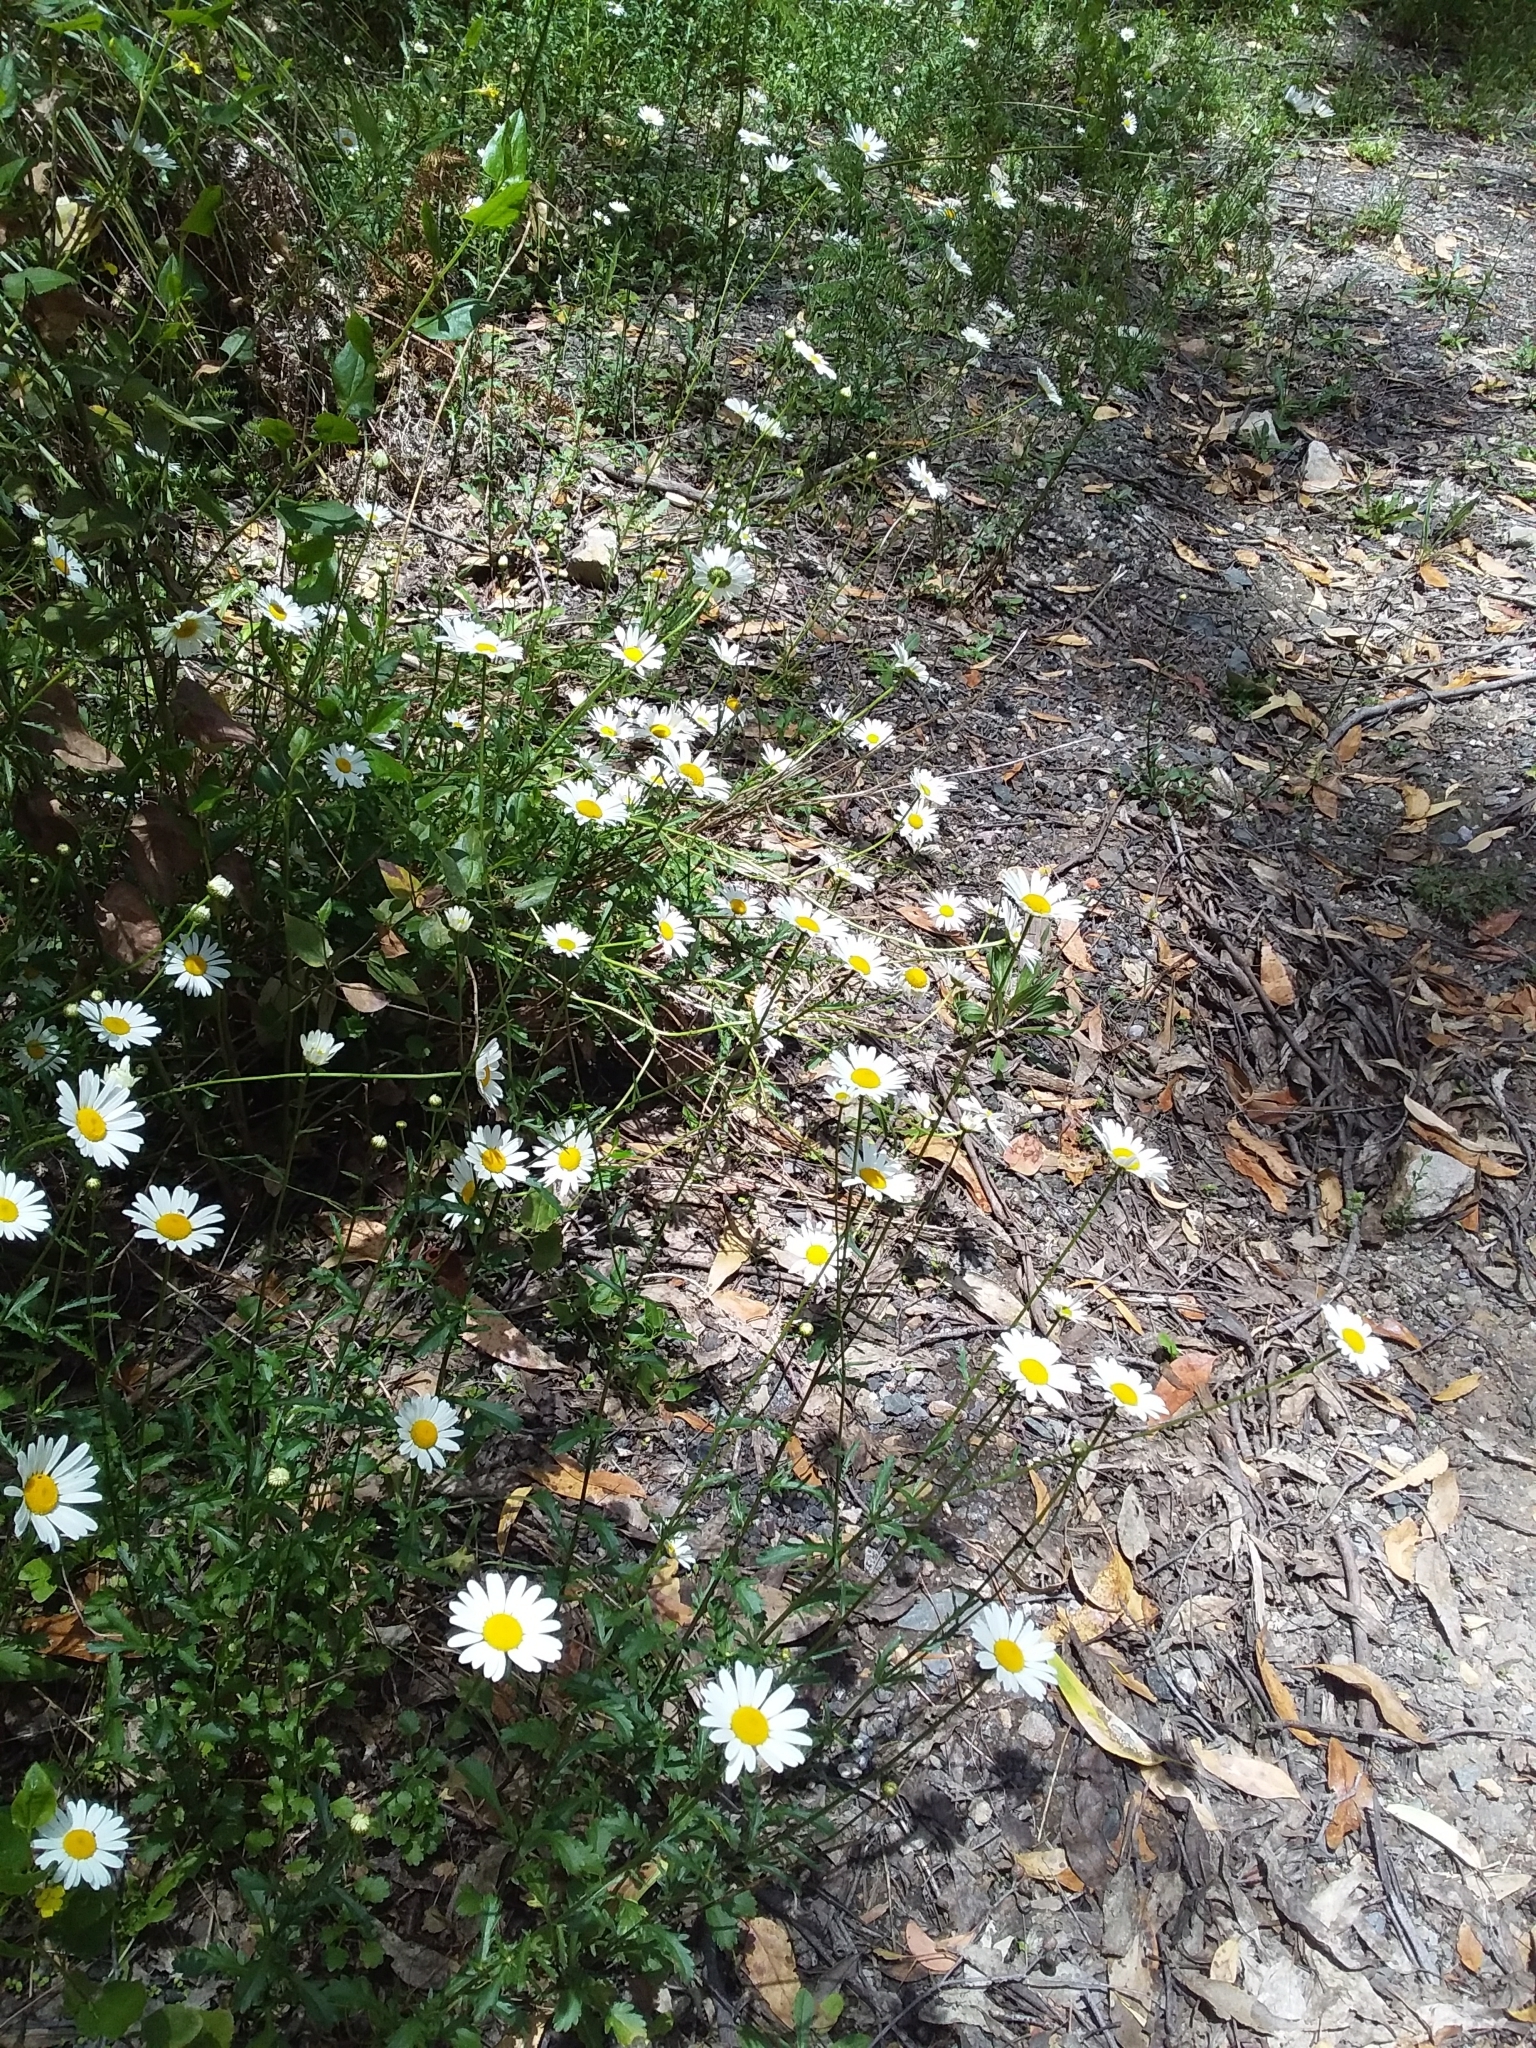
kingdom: Plantae
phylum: Tracheophyta
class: Magnoliopsida
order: Asterales
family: Asteraceae
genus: Leucanthemum
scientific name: Leucanthemum vulgare
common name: Oxeye daisy
